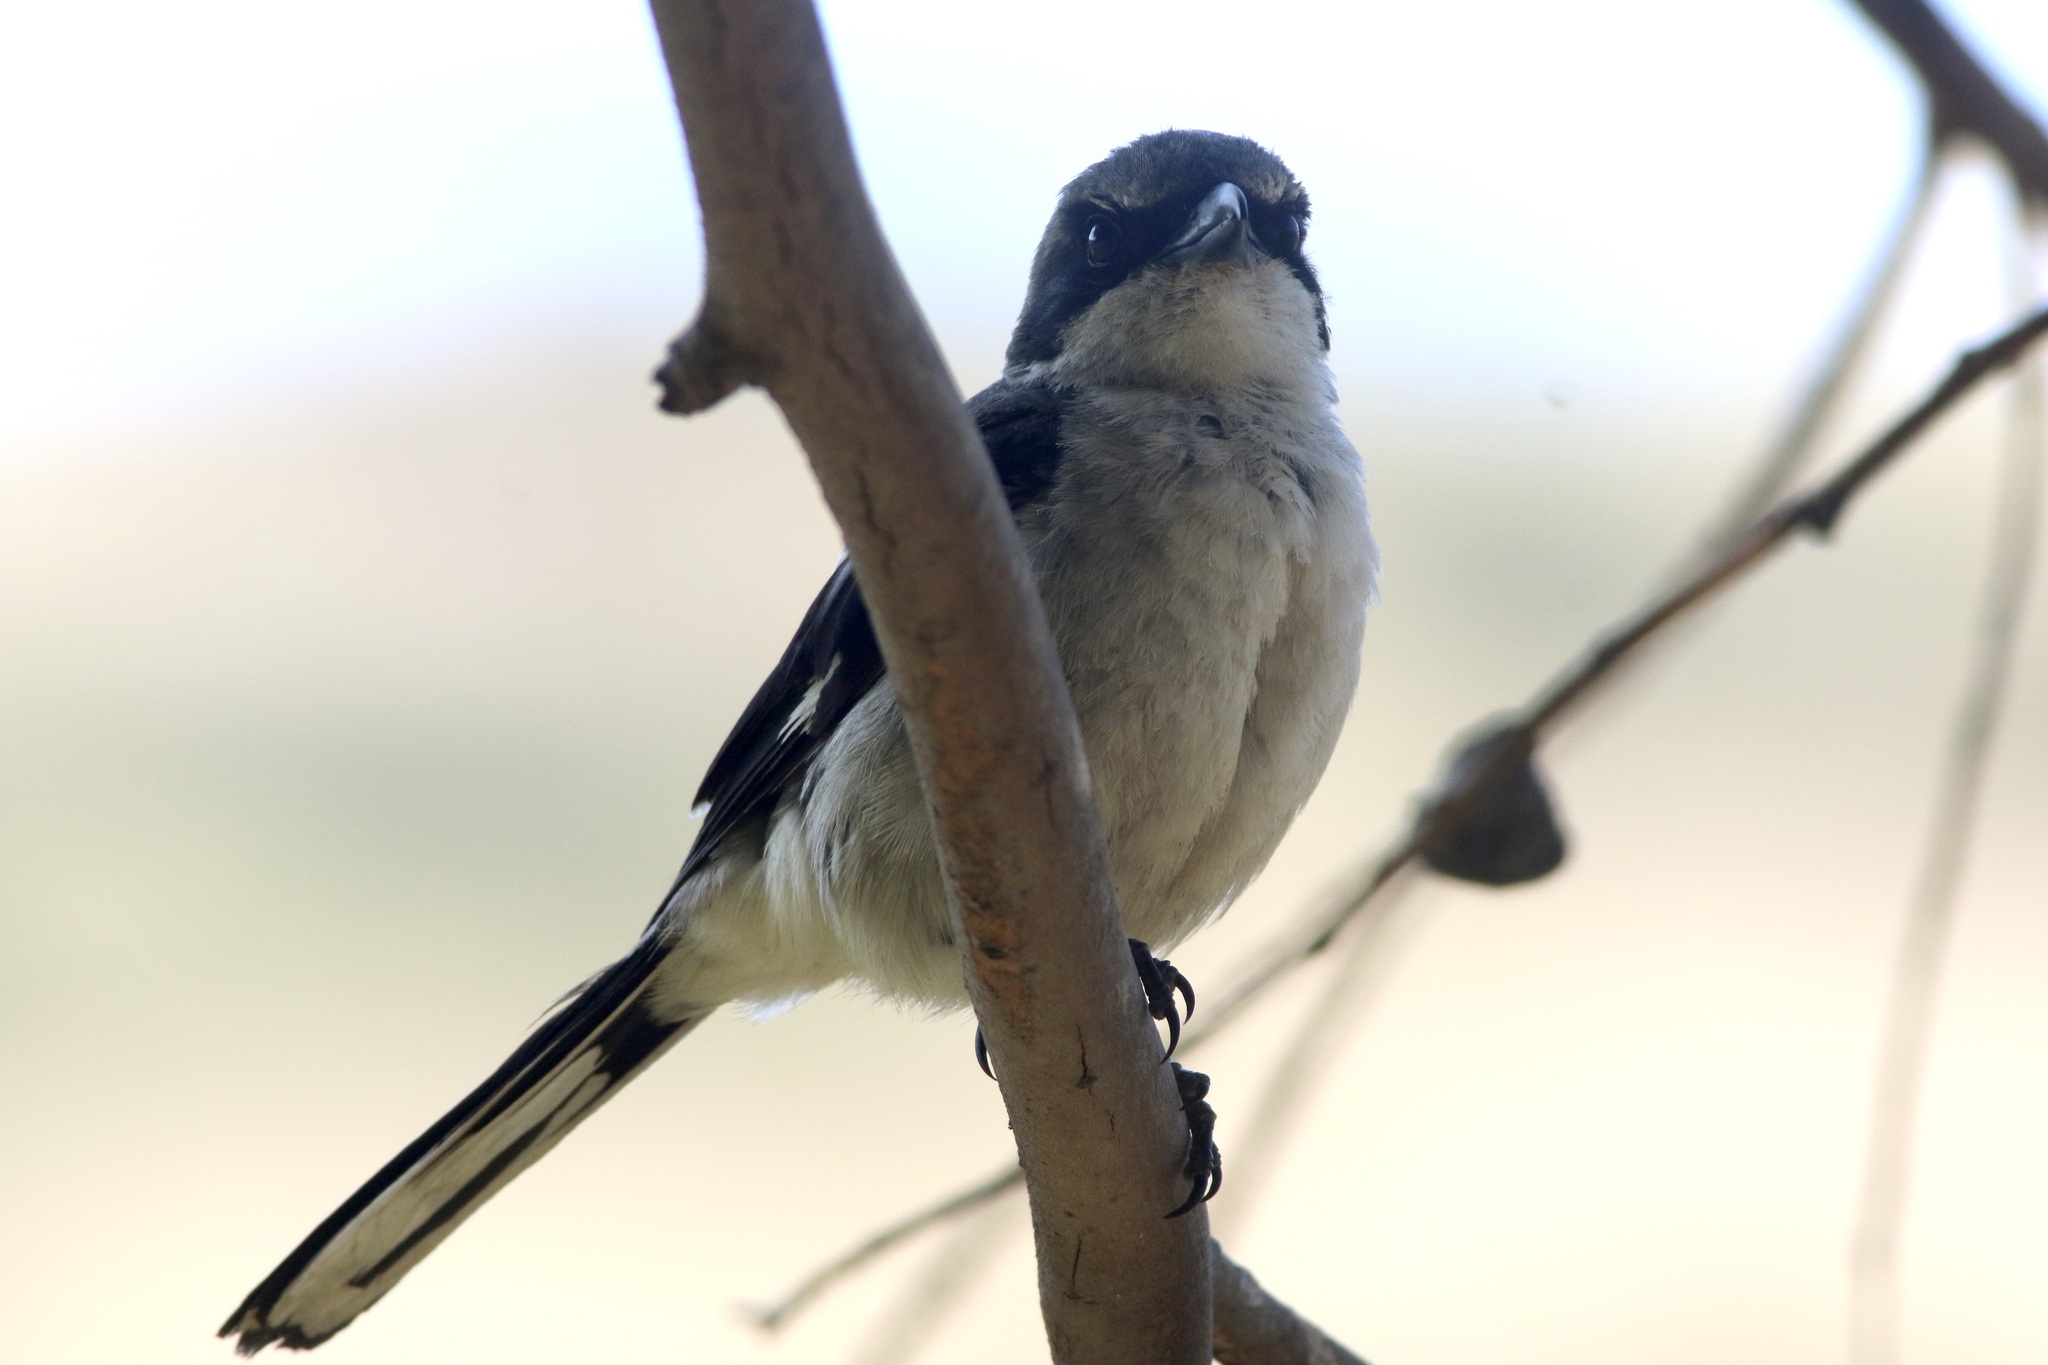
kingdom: Animalia
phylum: Chordata
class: Aves
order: Passeriformes
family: Laniidae
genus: Lanius
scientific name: Lanius ludovicianus
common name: Loggerhead shrike
